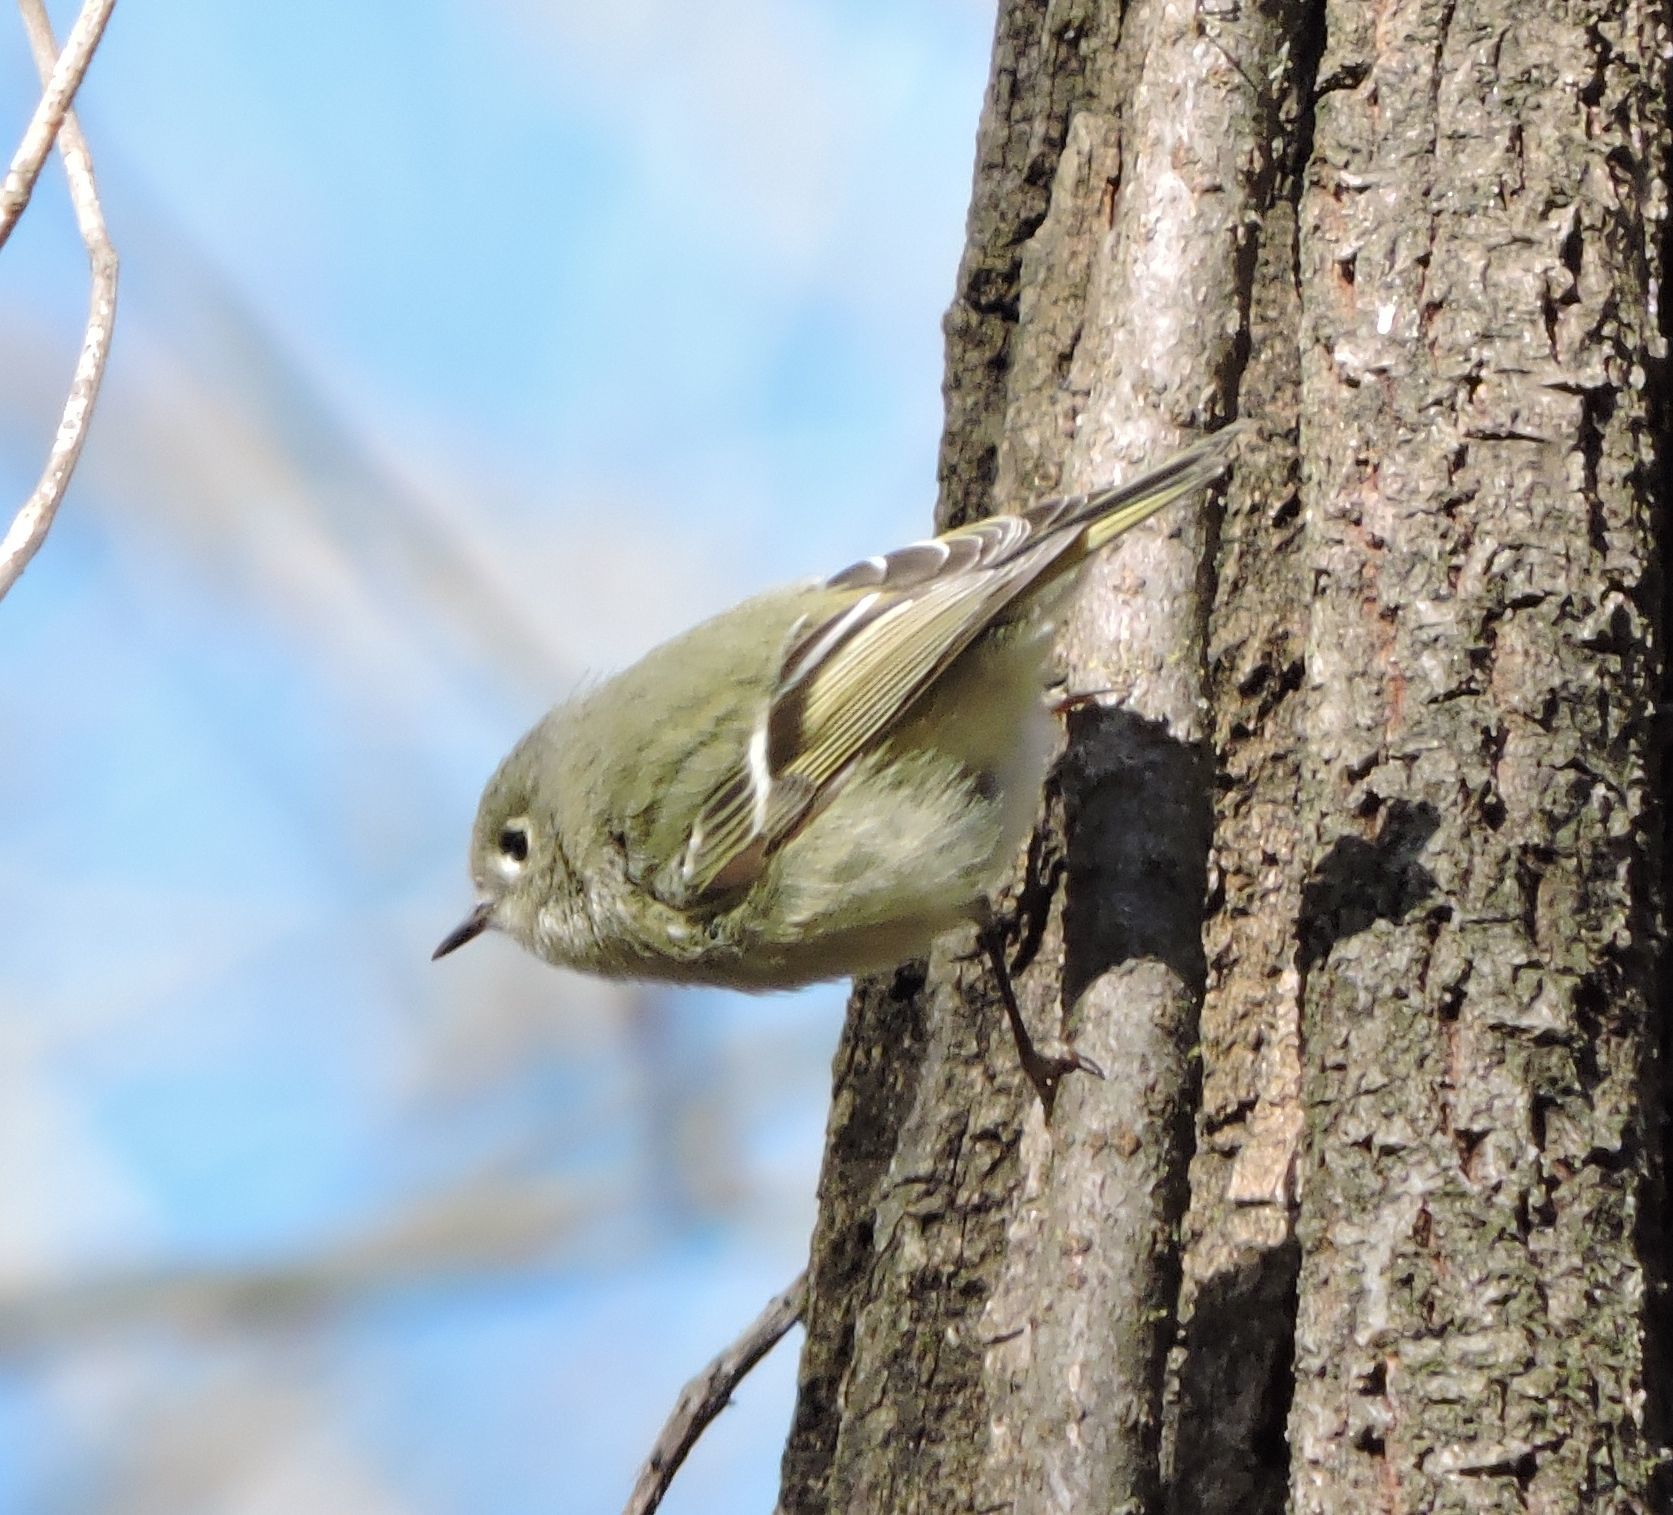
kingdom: Animalia
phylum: Chordata
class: Aves
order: Passeriformes
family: Regulidae
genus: Regulus
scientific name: Regulus calendula
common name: Ruby-crowned kinglet
